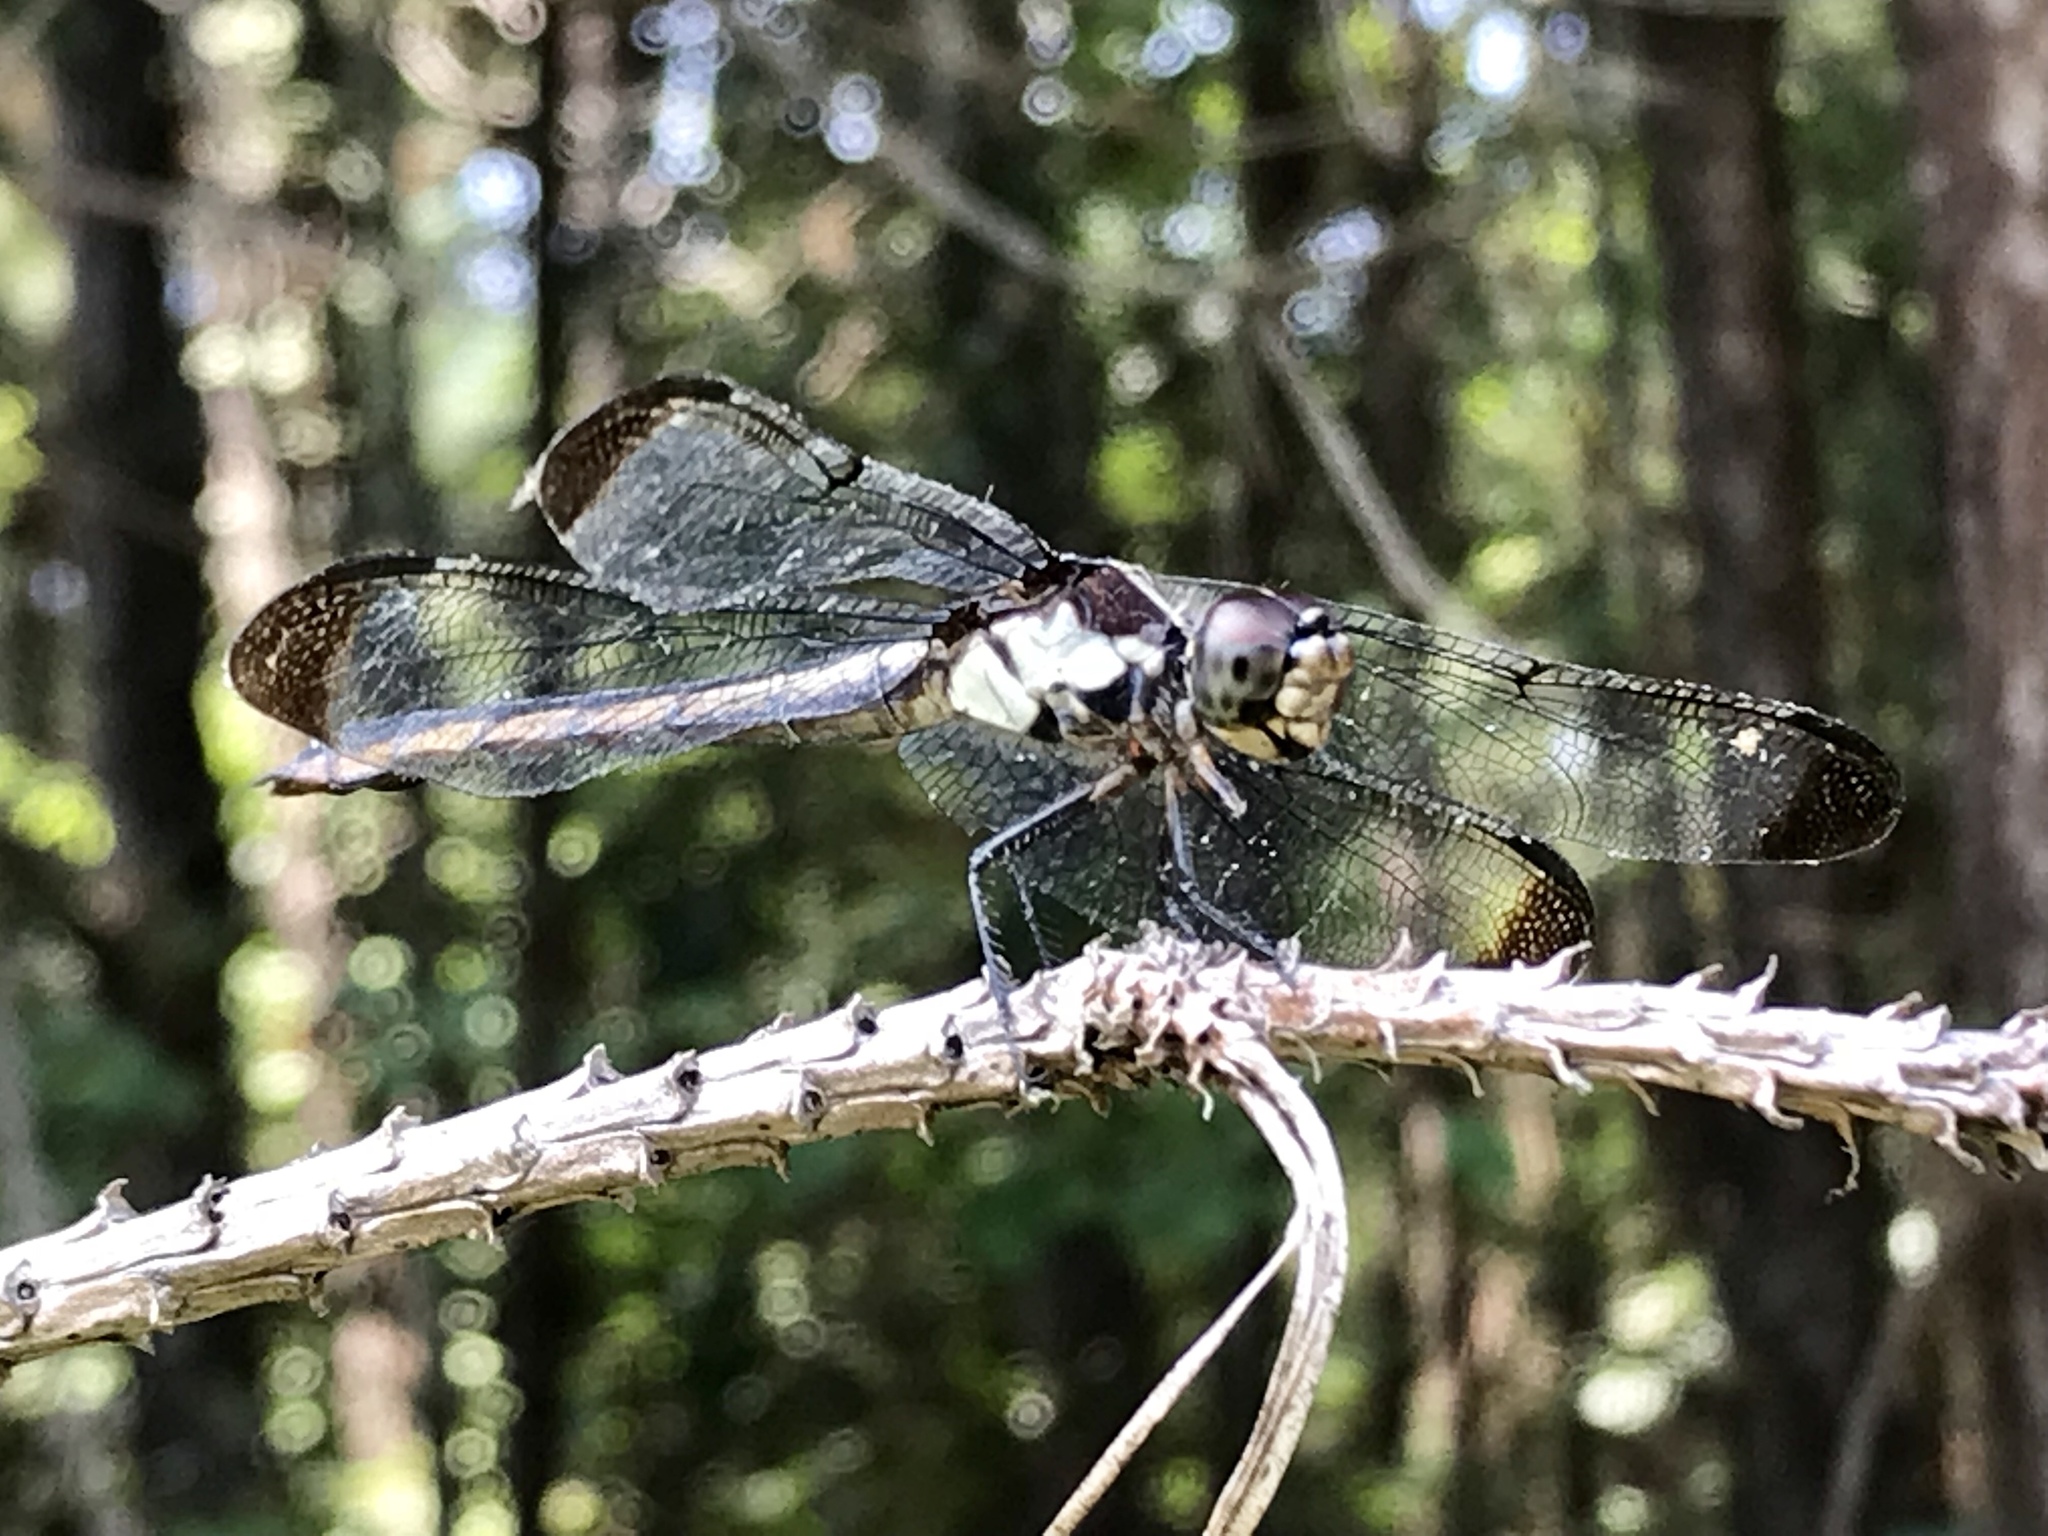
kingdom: Animalia
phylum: Arthropoda
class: Insecta
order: Odonata
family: Libellulidae
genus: Libellula
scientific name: Libellula incesta
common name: Slaty skimmer
